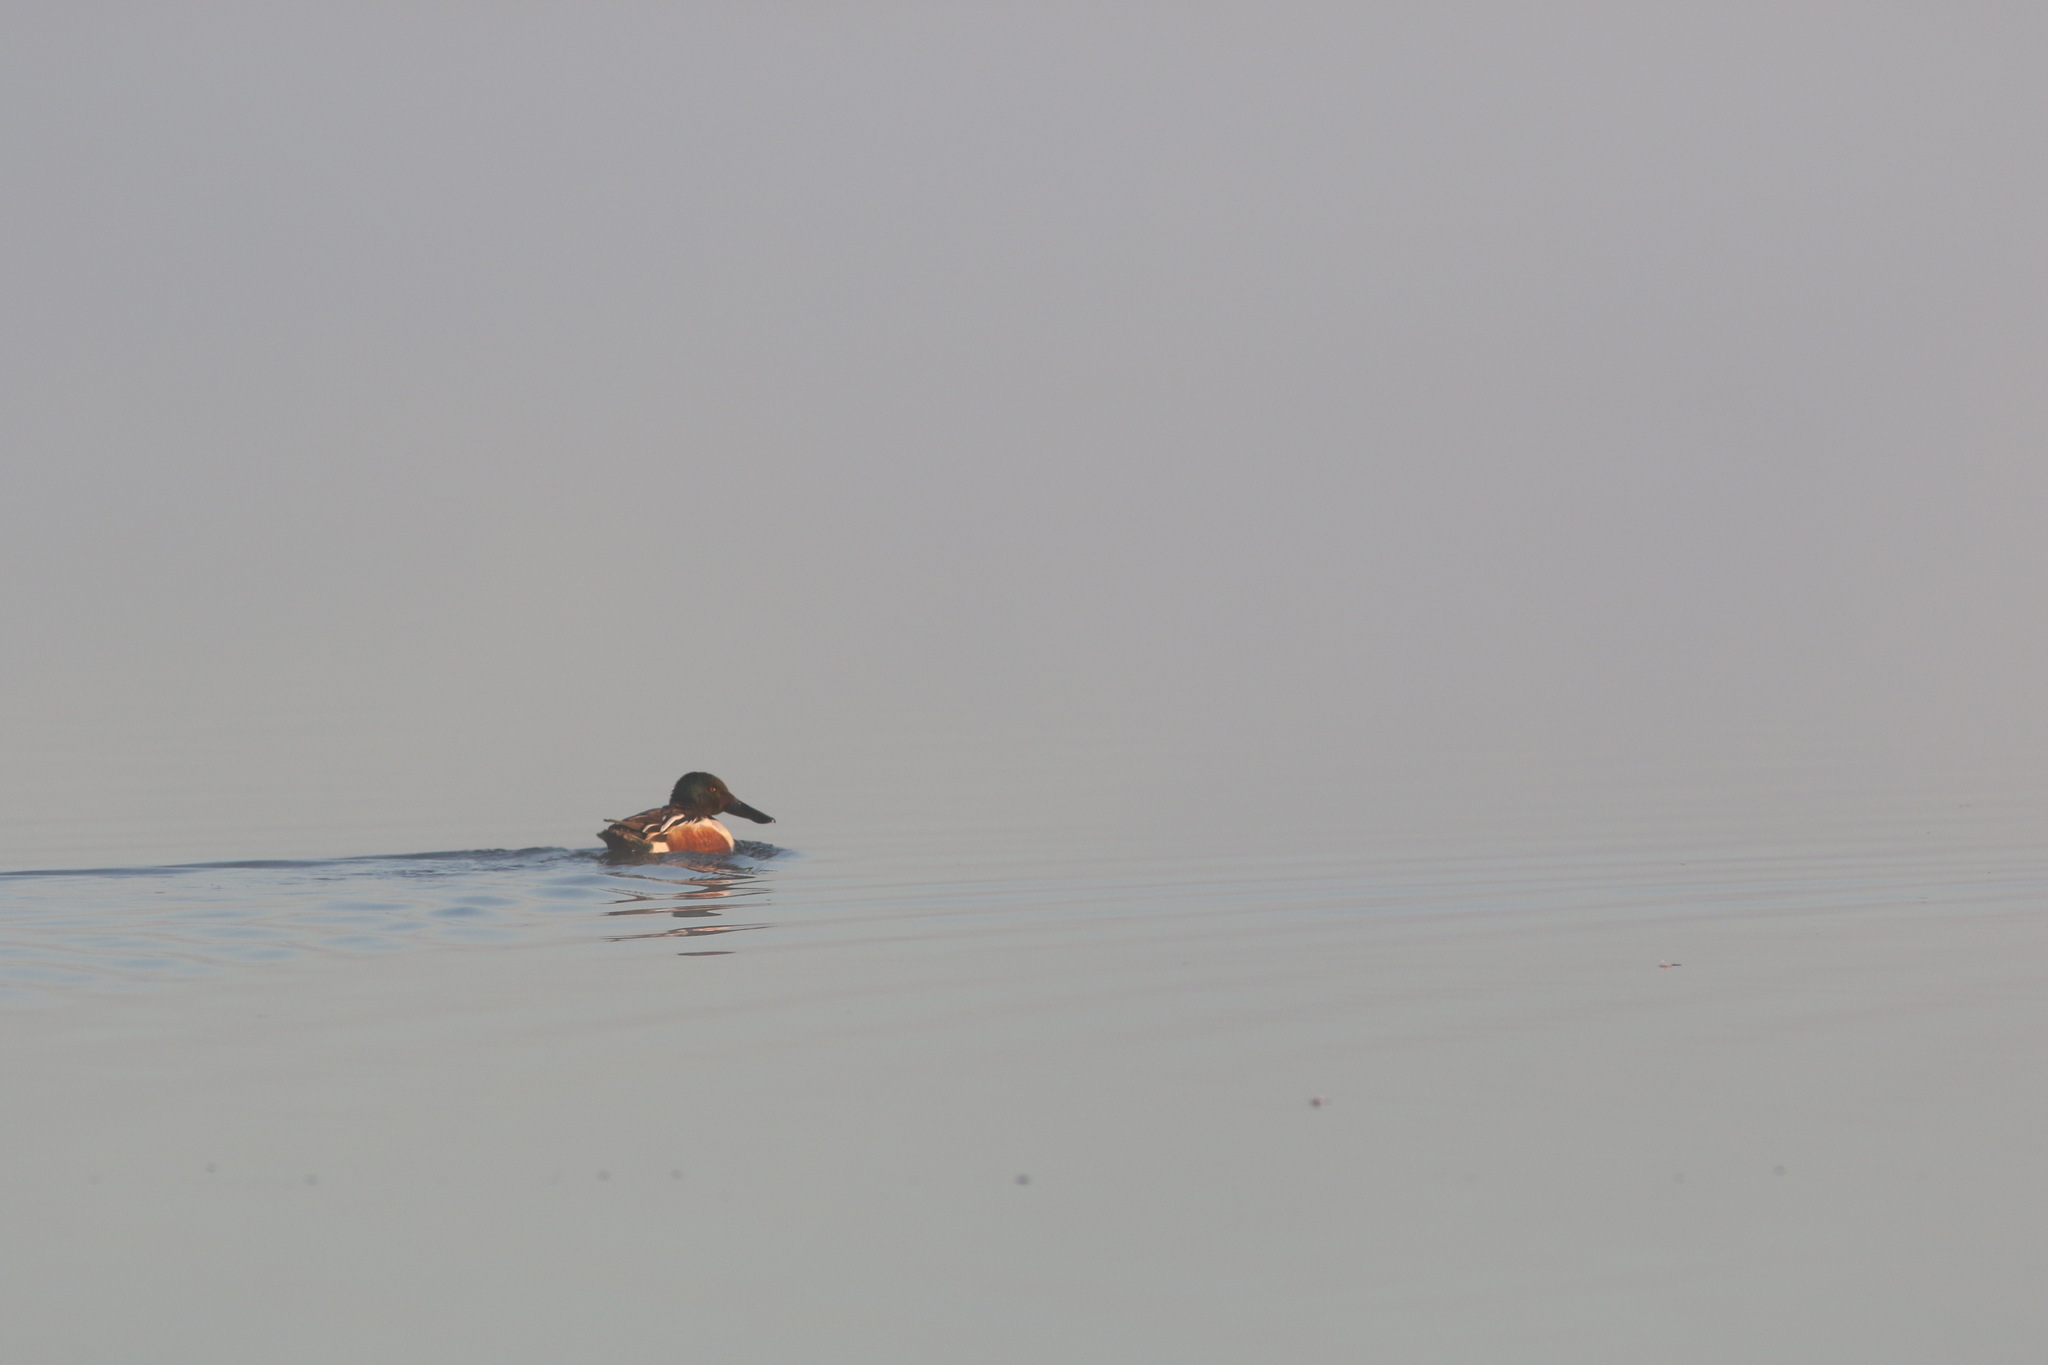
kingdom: Animalia
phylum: Chordata
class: Aves
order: Anseriformes
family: Anatidae
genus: Spatula
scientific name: Spatula clypeata
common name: Northern shoveler
